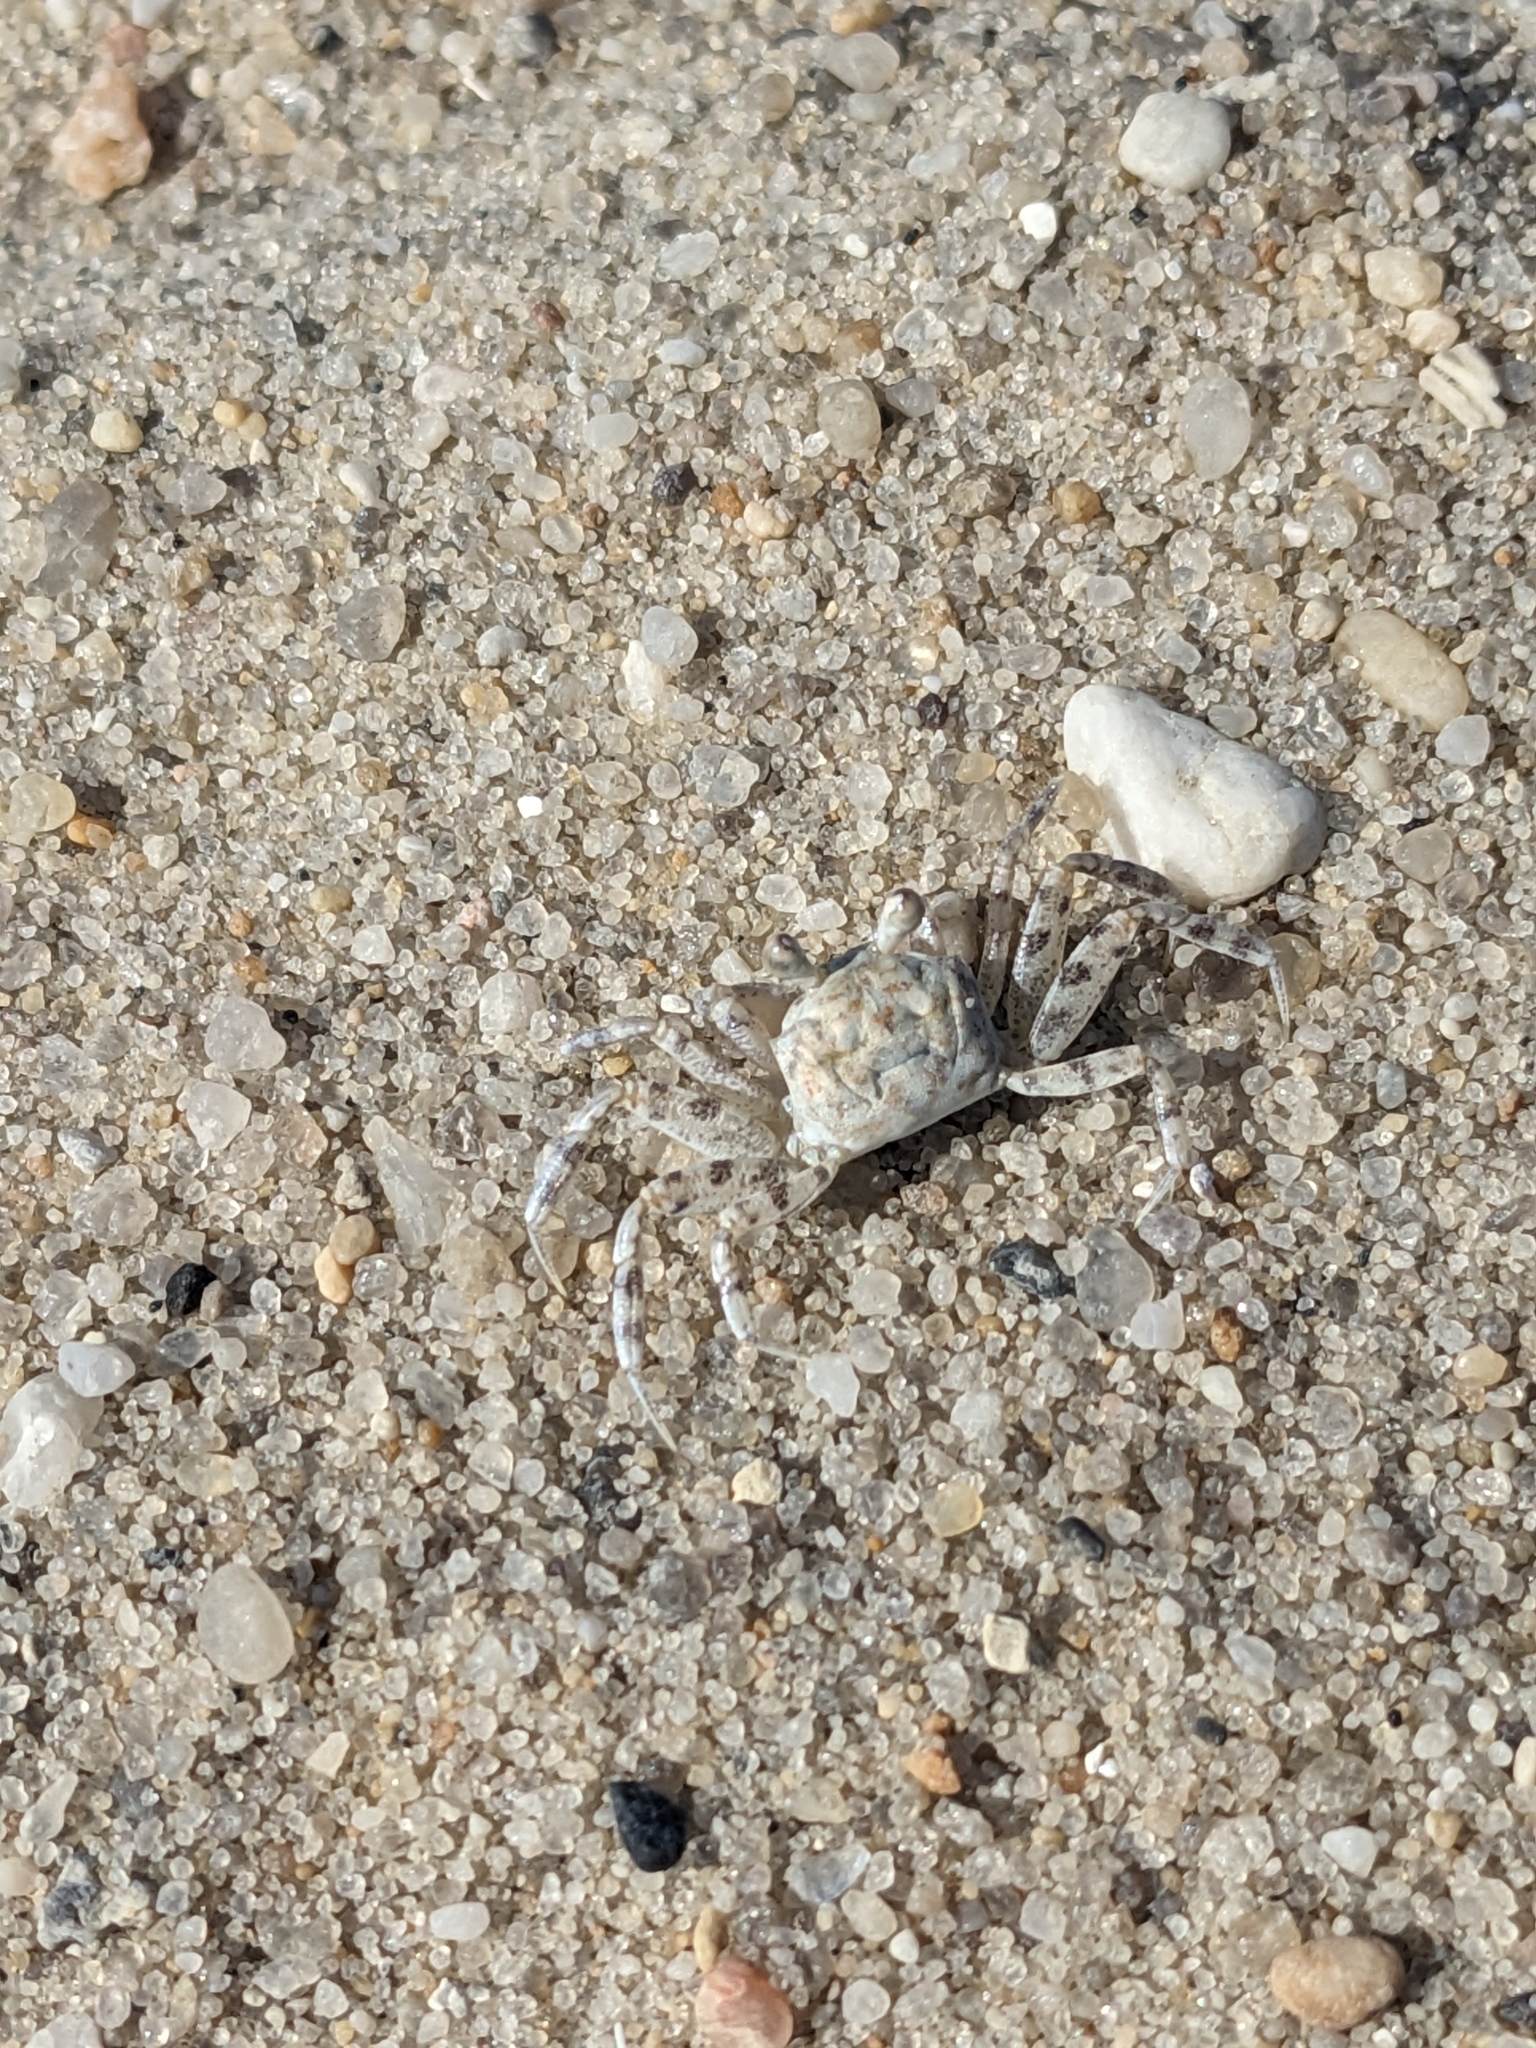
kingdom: Animalia
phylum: Arthropoda
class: Malacostraca
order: Decapoda
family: Ocypodidae
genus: Ocypode
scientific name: Ocypode quadrata
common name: Ghost crab
